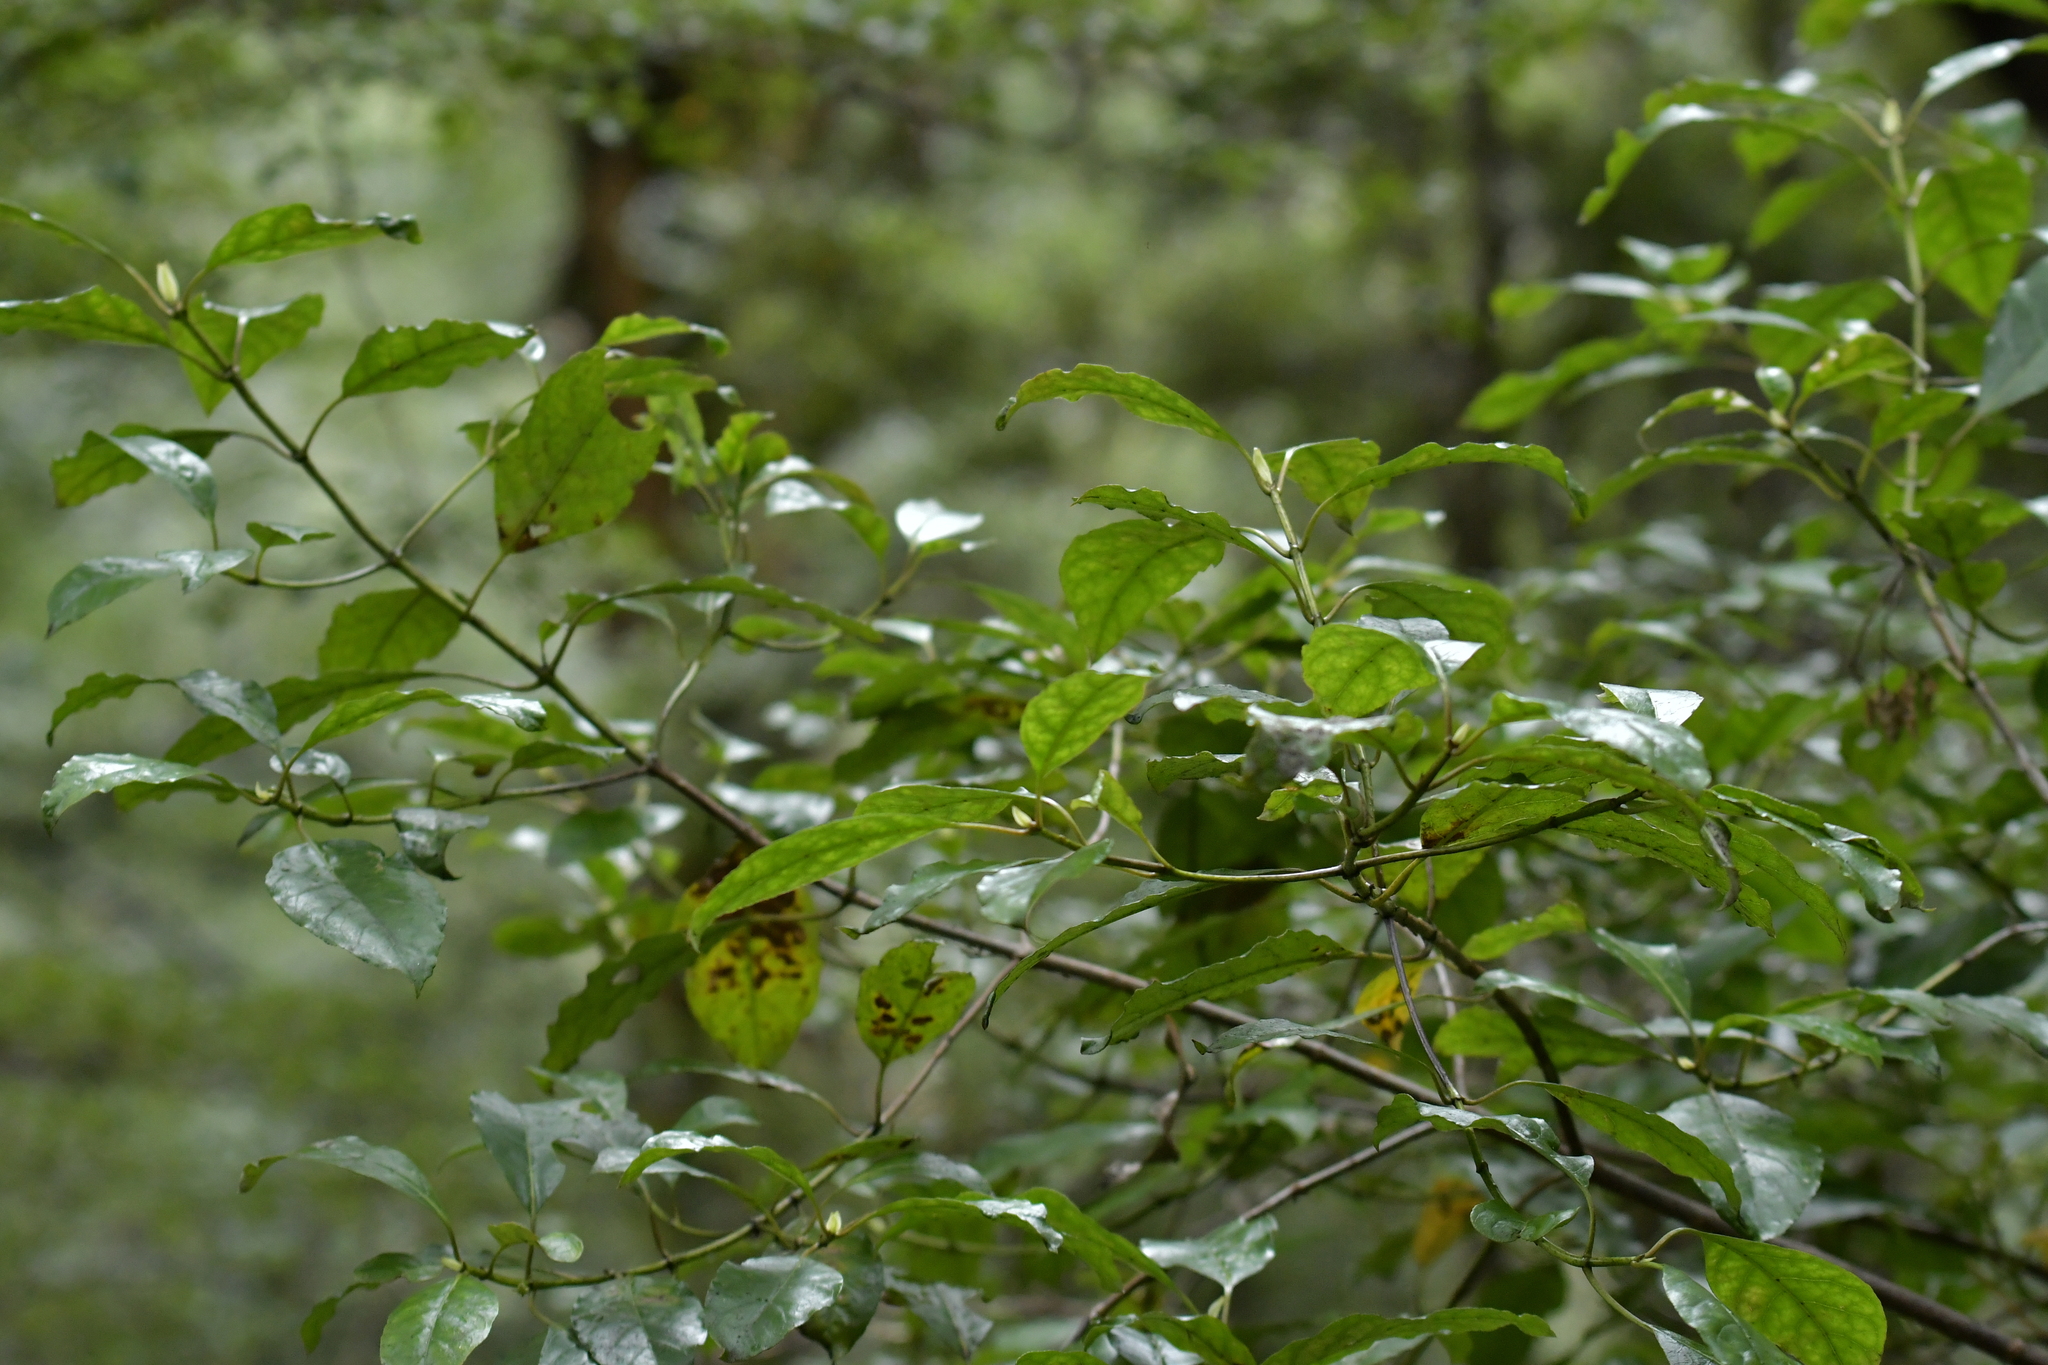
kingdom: Plantae
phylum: Tracheophyta
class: Magnoliopsida
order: Gentianales
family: Rubiaceae
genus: Coprosma
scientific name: Coprosma autumnalis
